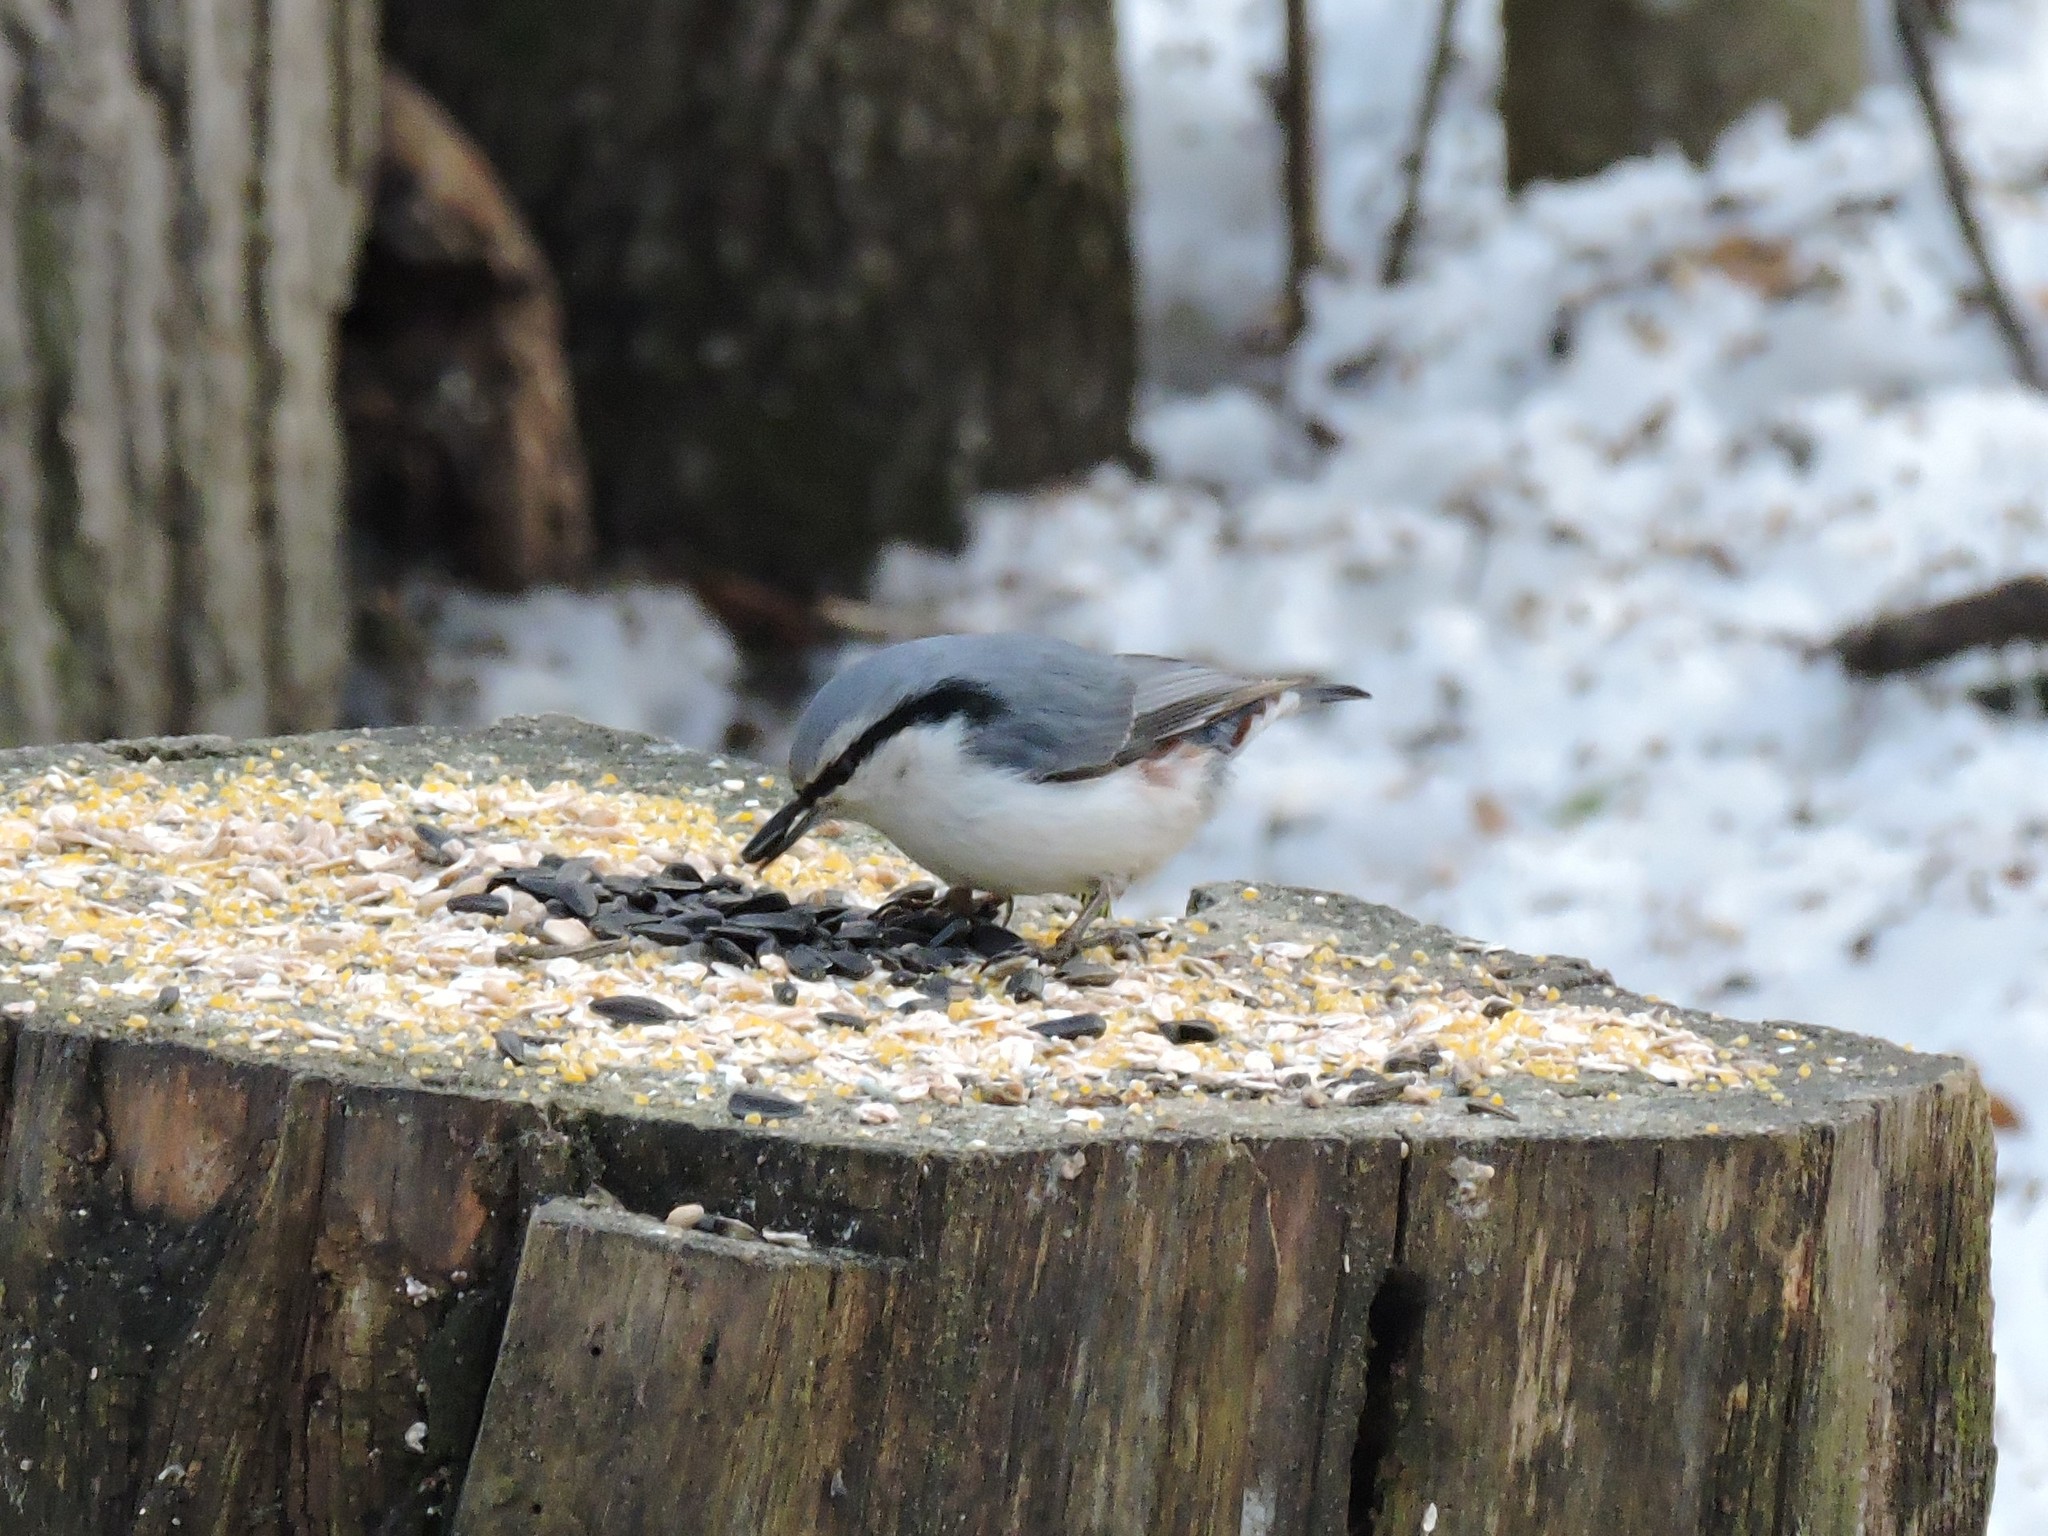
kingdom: Animalia
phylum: Chordata
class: Aves
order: Passeriformes
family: Sittidae
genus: Sitta
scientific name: Sitta europaea
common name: Eurasian nuthatch
